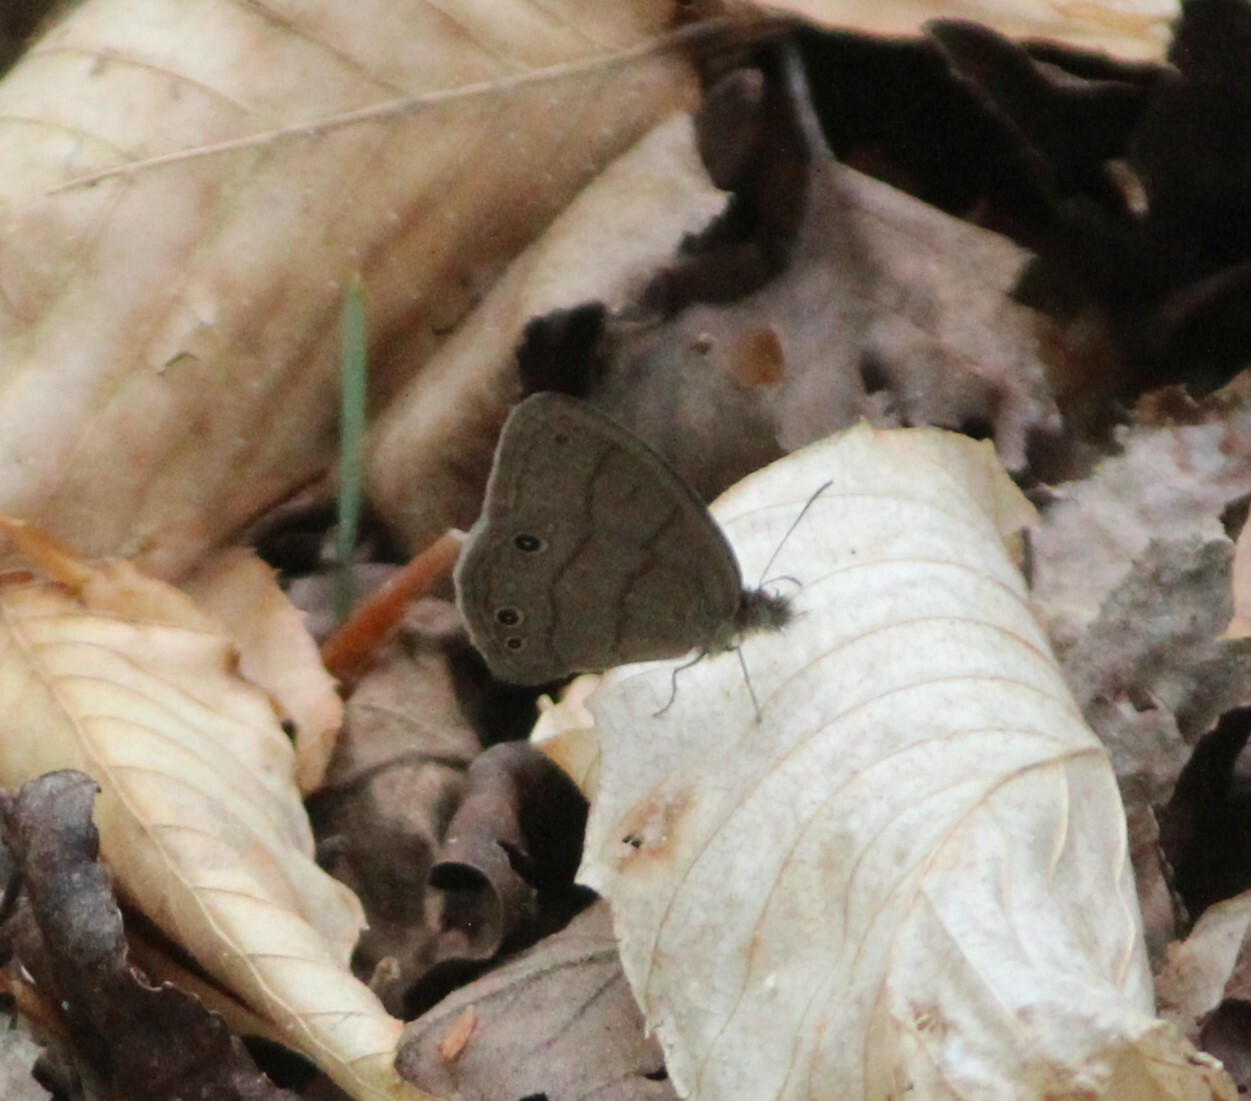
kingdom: Animalia
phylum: Arthropoda
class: Insecta
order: Lepidoptera
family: Nymphalidae
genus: Hermeuptychia
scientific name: Hermeuptychia hermes
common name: Hermes satyr
